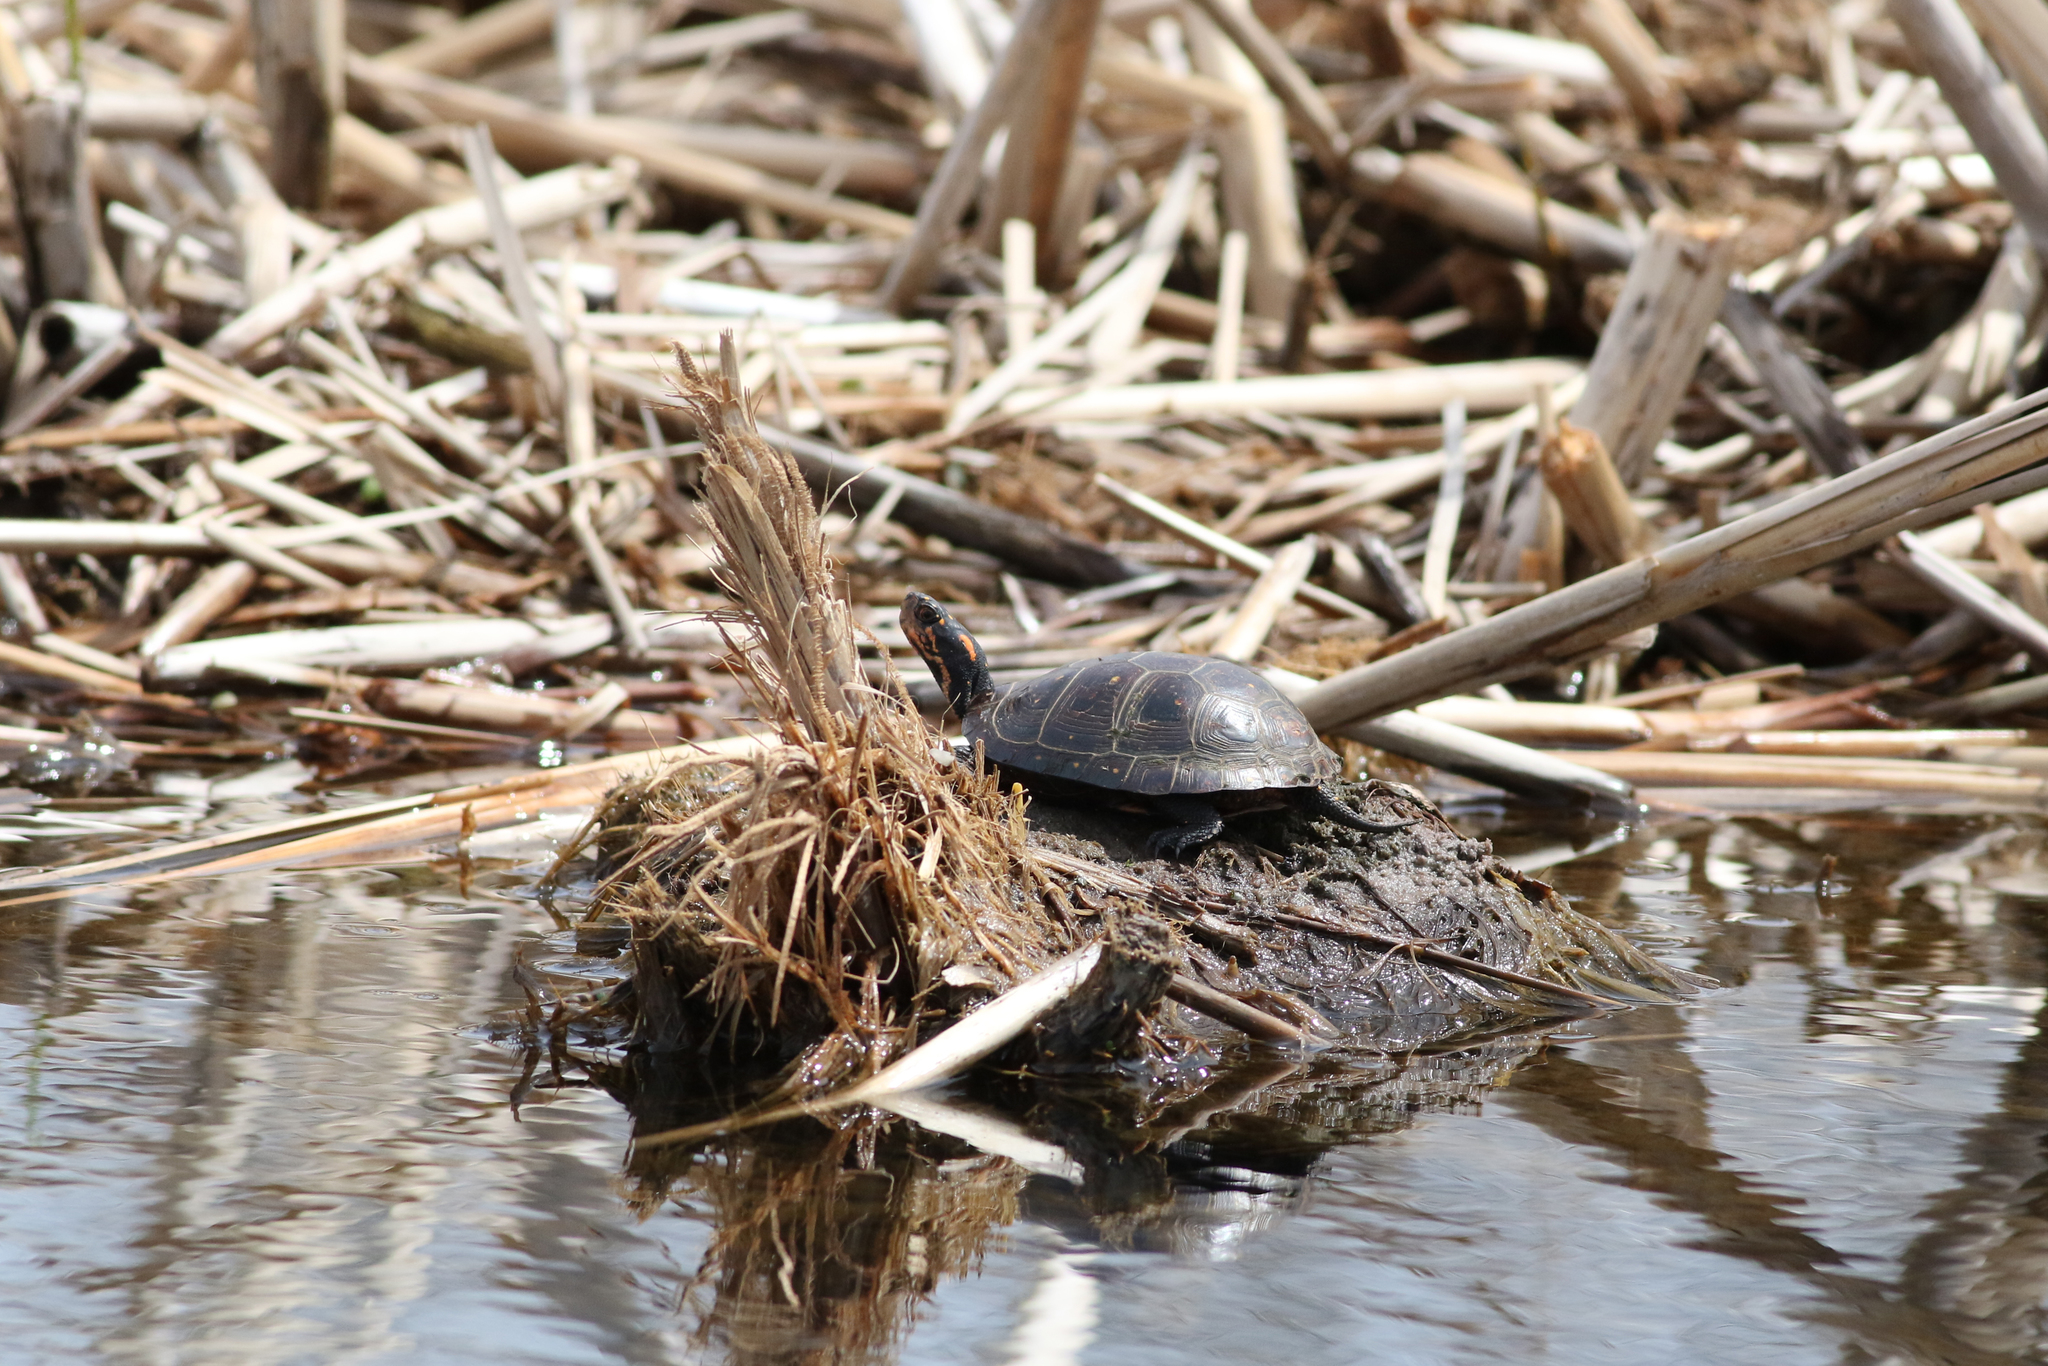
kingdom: Animalia
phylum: Chordata
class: Testudines
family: Emydidae
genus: Clemmys
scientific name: Clemmys guttata
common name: Spotted turtle
